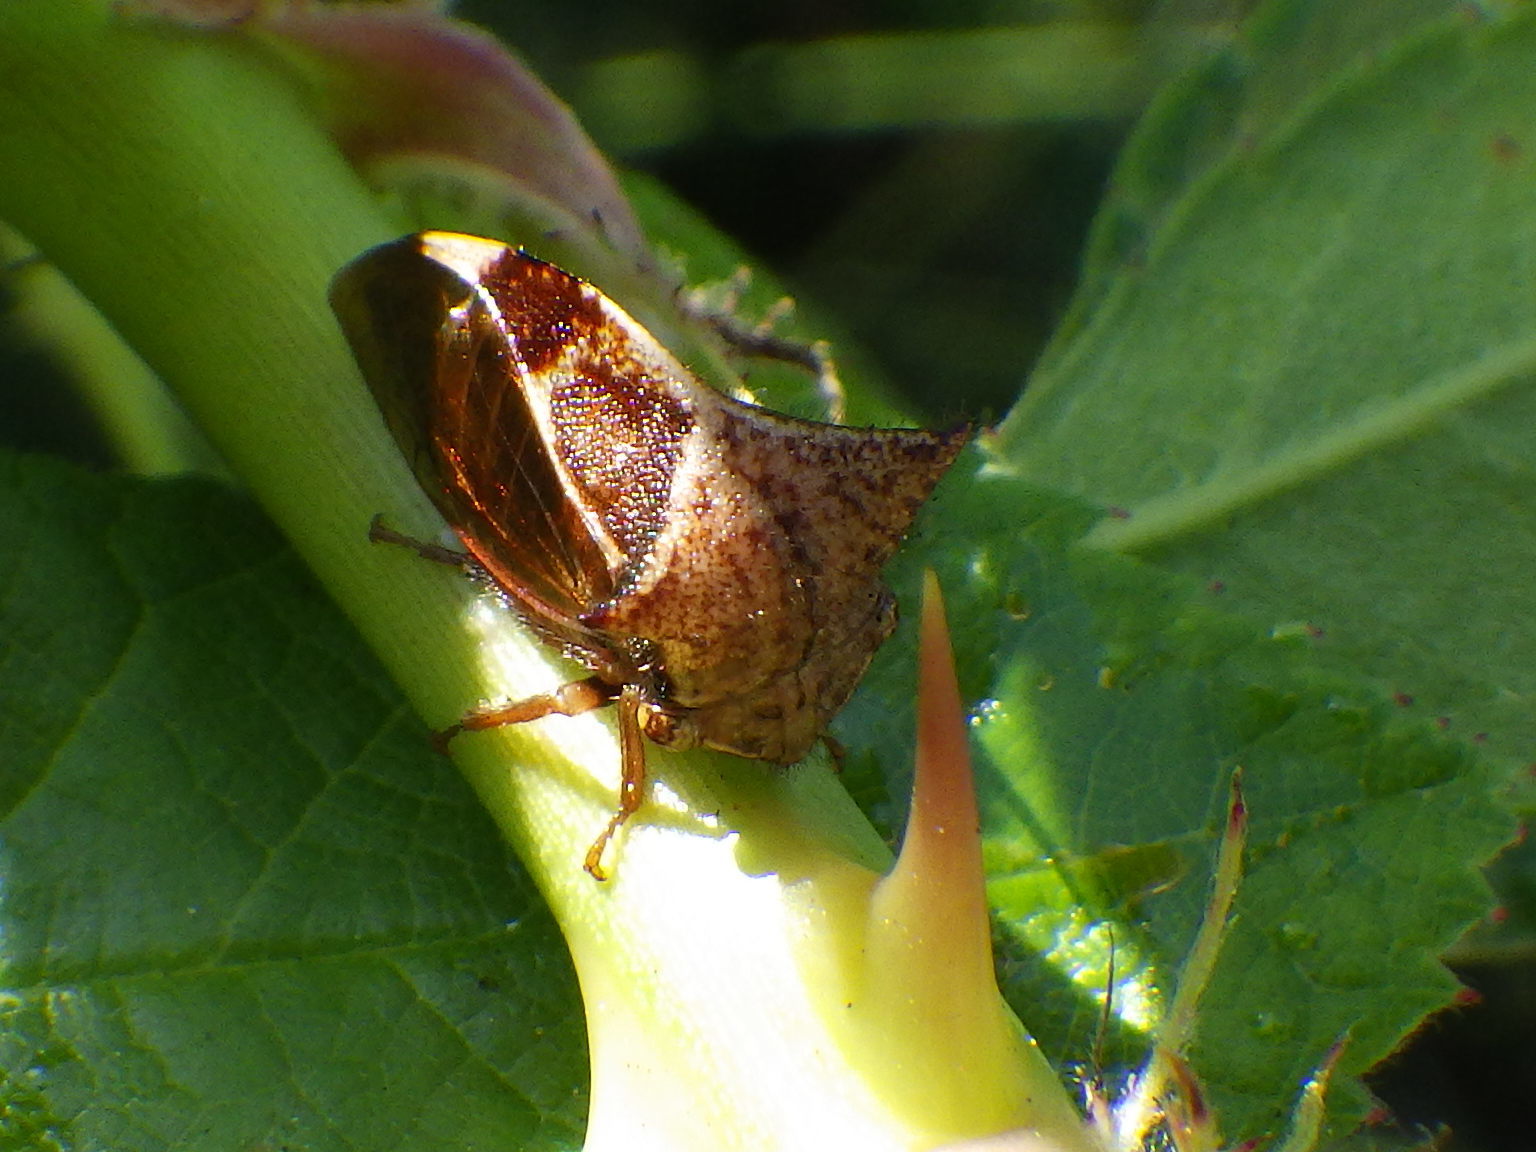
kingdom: Animalia
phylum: Arthropoda
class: Insecta
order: Hemiptera
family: Membracidae
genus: Stictocephala
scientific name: Stictocephala diceros
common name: Two-horned treehopper
